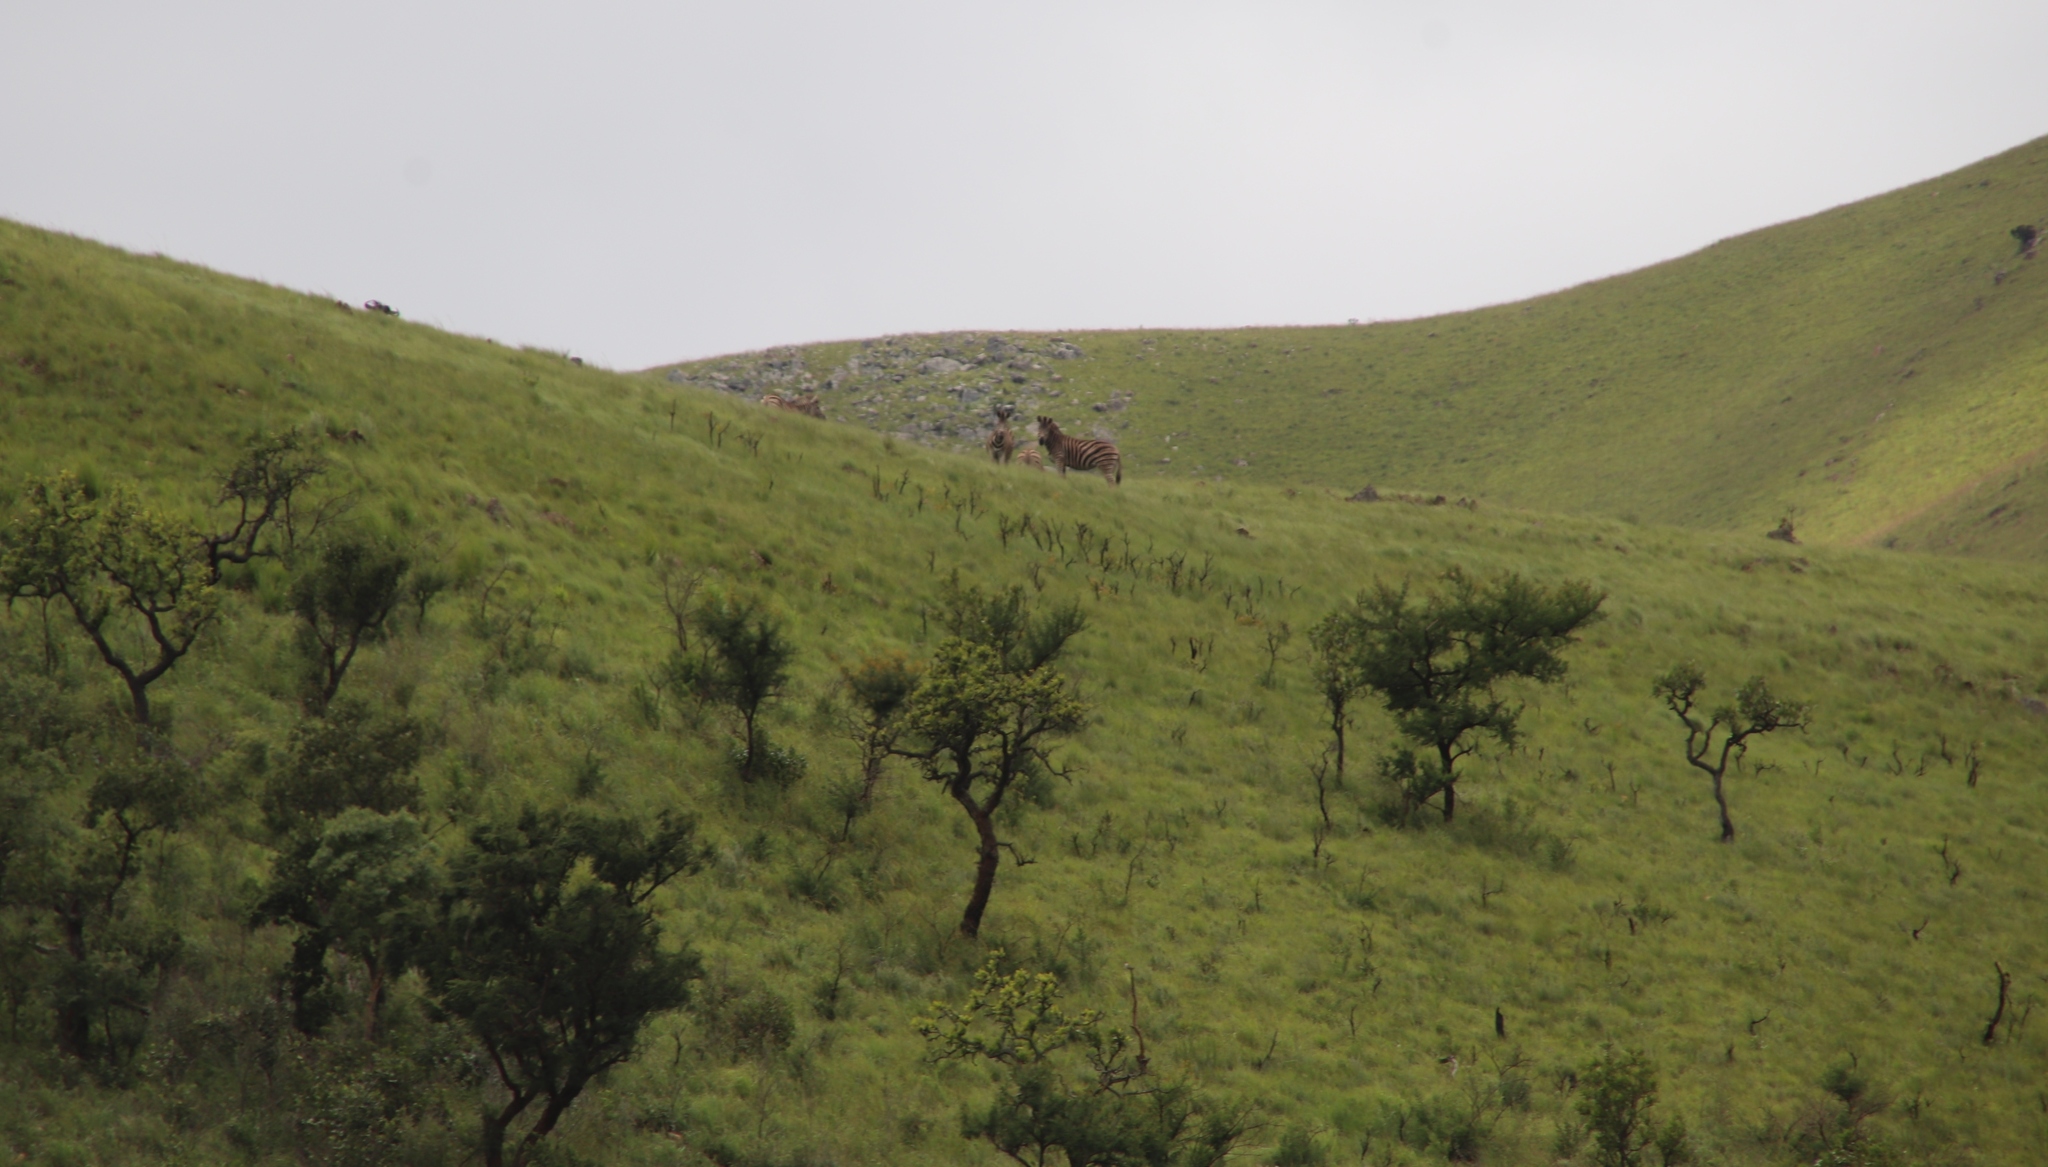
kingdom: Animalia
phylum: Chordata
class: Mammalia
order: Perissodactyla
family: Equidae
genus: Equus
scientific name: Equus quagga
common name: Plains zebra
